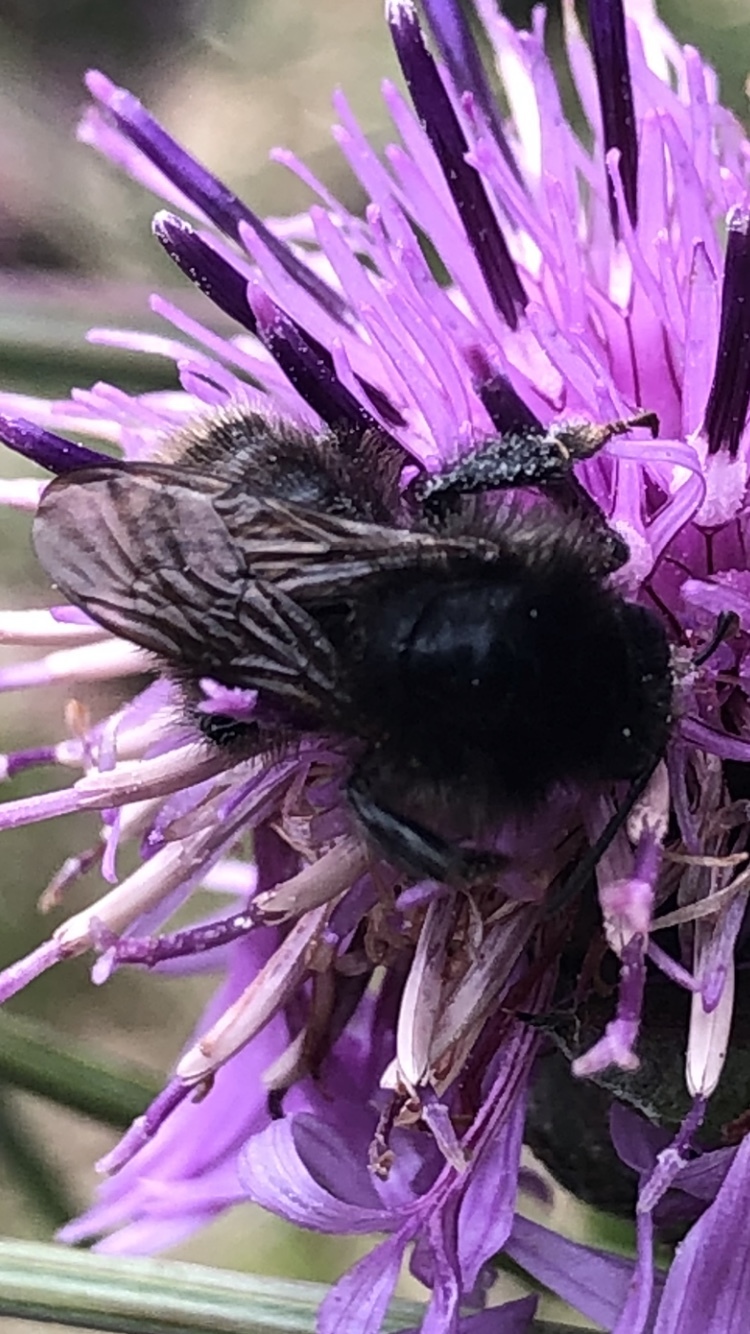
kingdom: Animalia
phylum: Arthropoda
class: Insecta
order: Hymenoptera
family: Apidae
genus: Bombus
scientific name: Bombus humilis
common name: Brown-banded carder-bee
